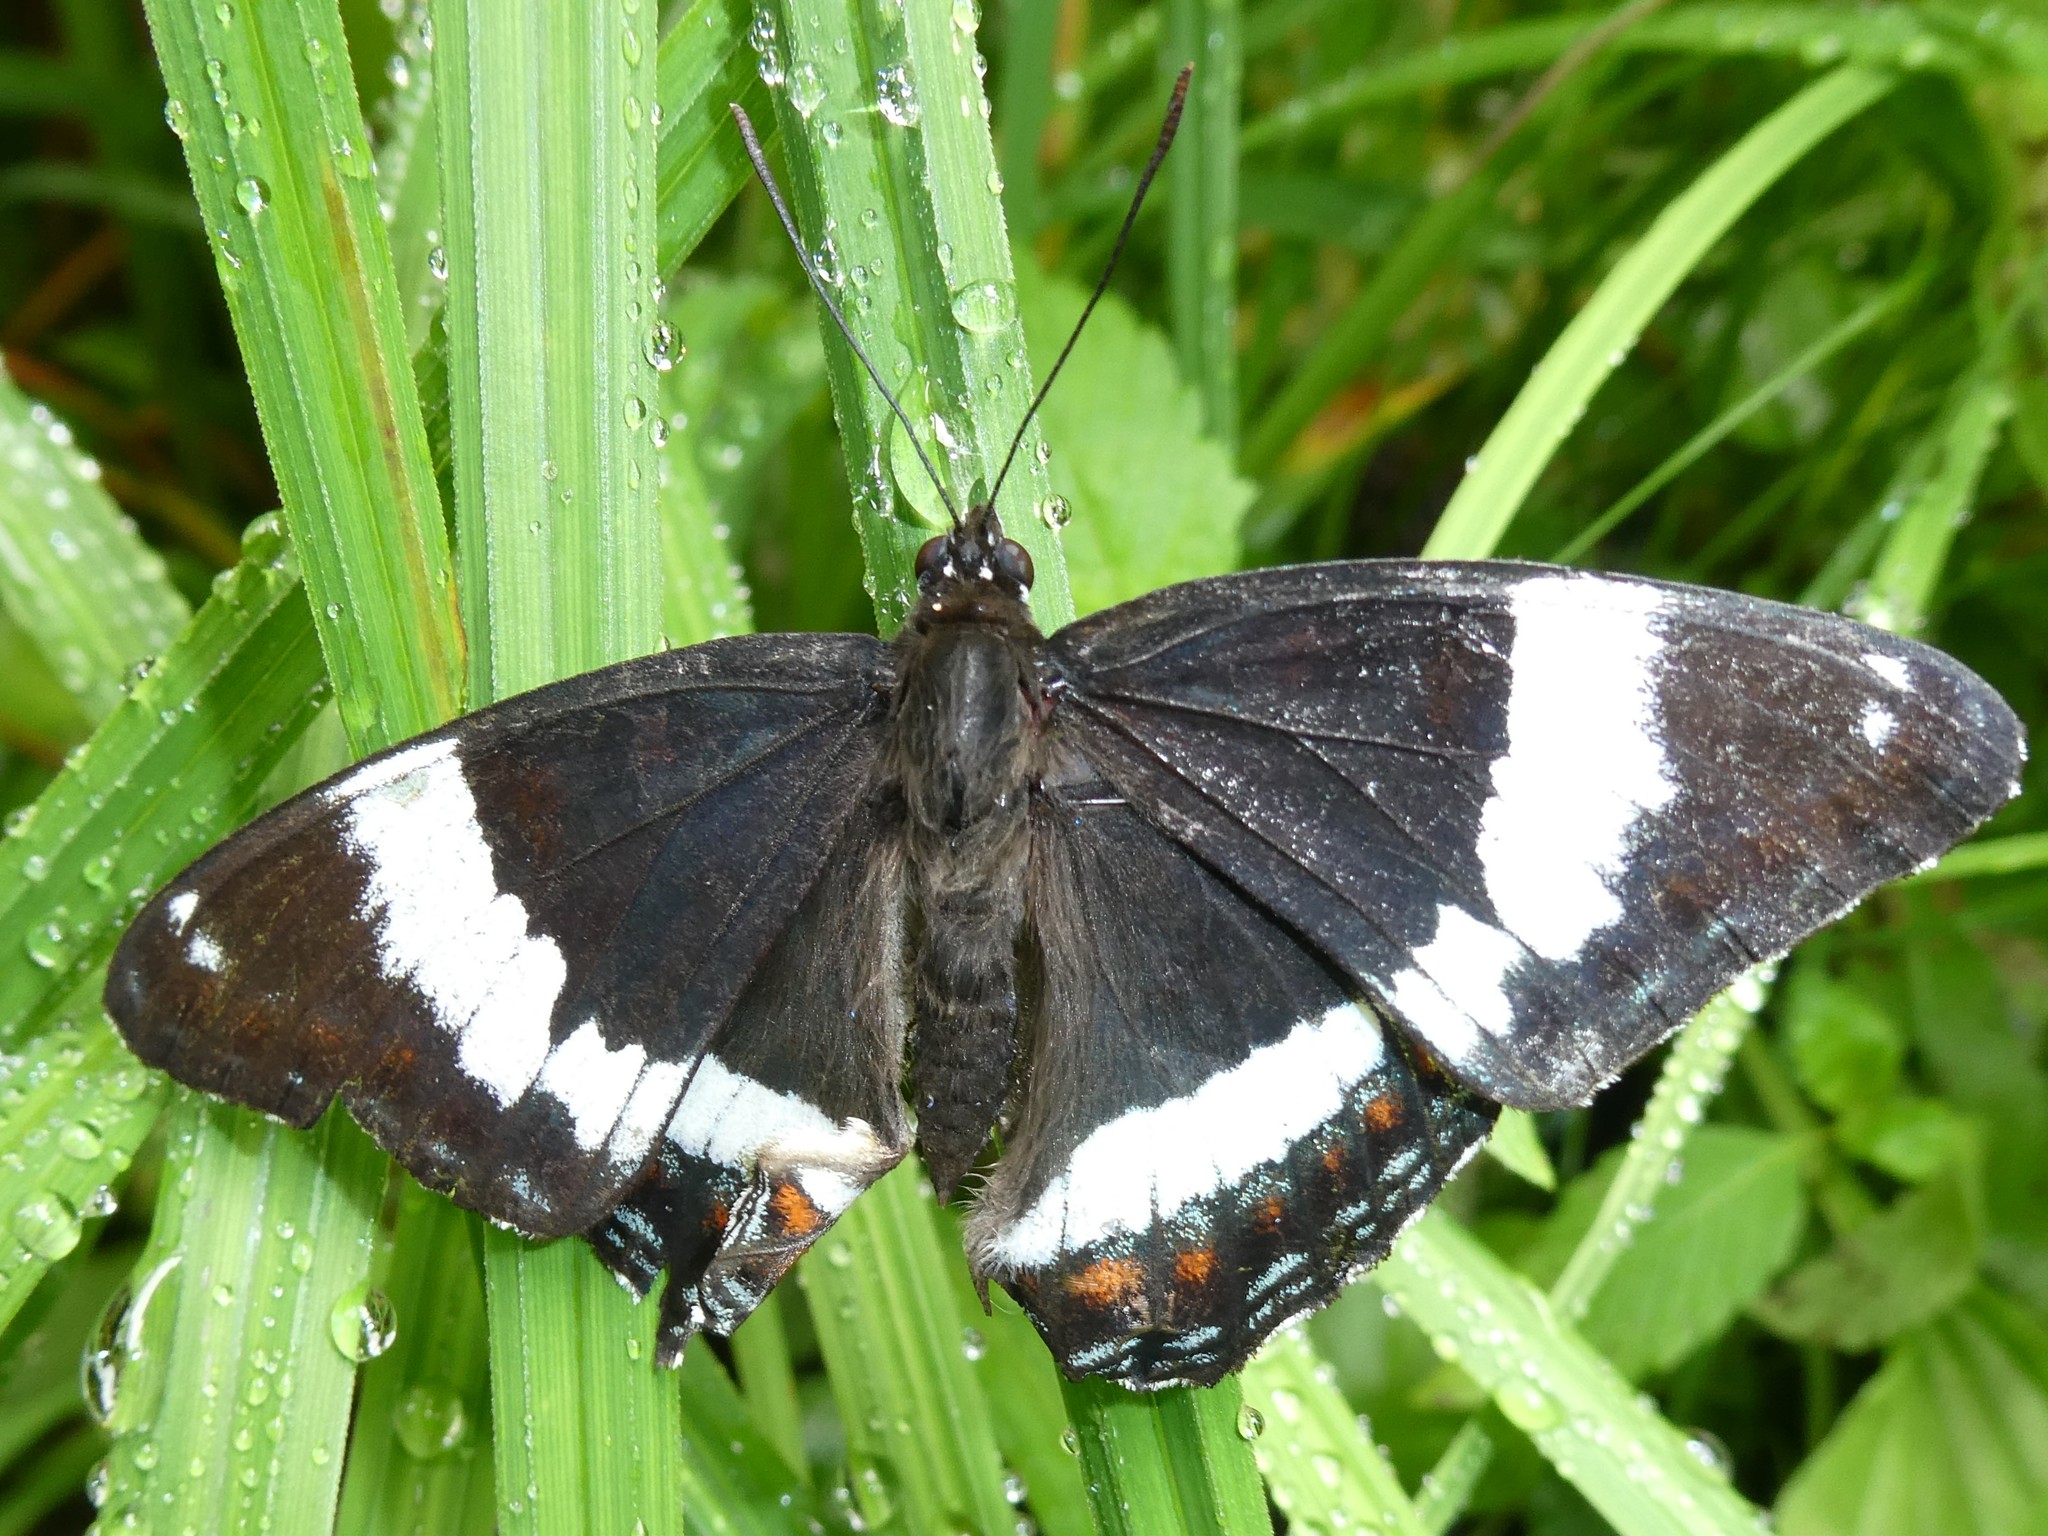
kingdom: Animalia
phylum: Arthropoda
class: Insecta
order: Lepidoptera
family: Nymphalidae
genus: Limenitis
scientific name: Limenitis arthemis
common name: Red-spotted admiral
